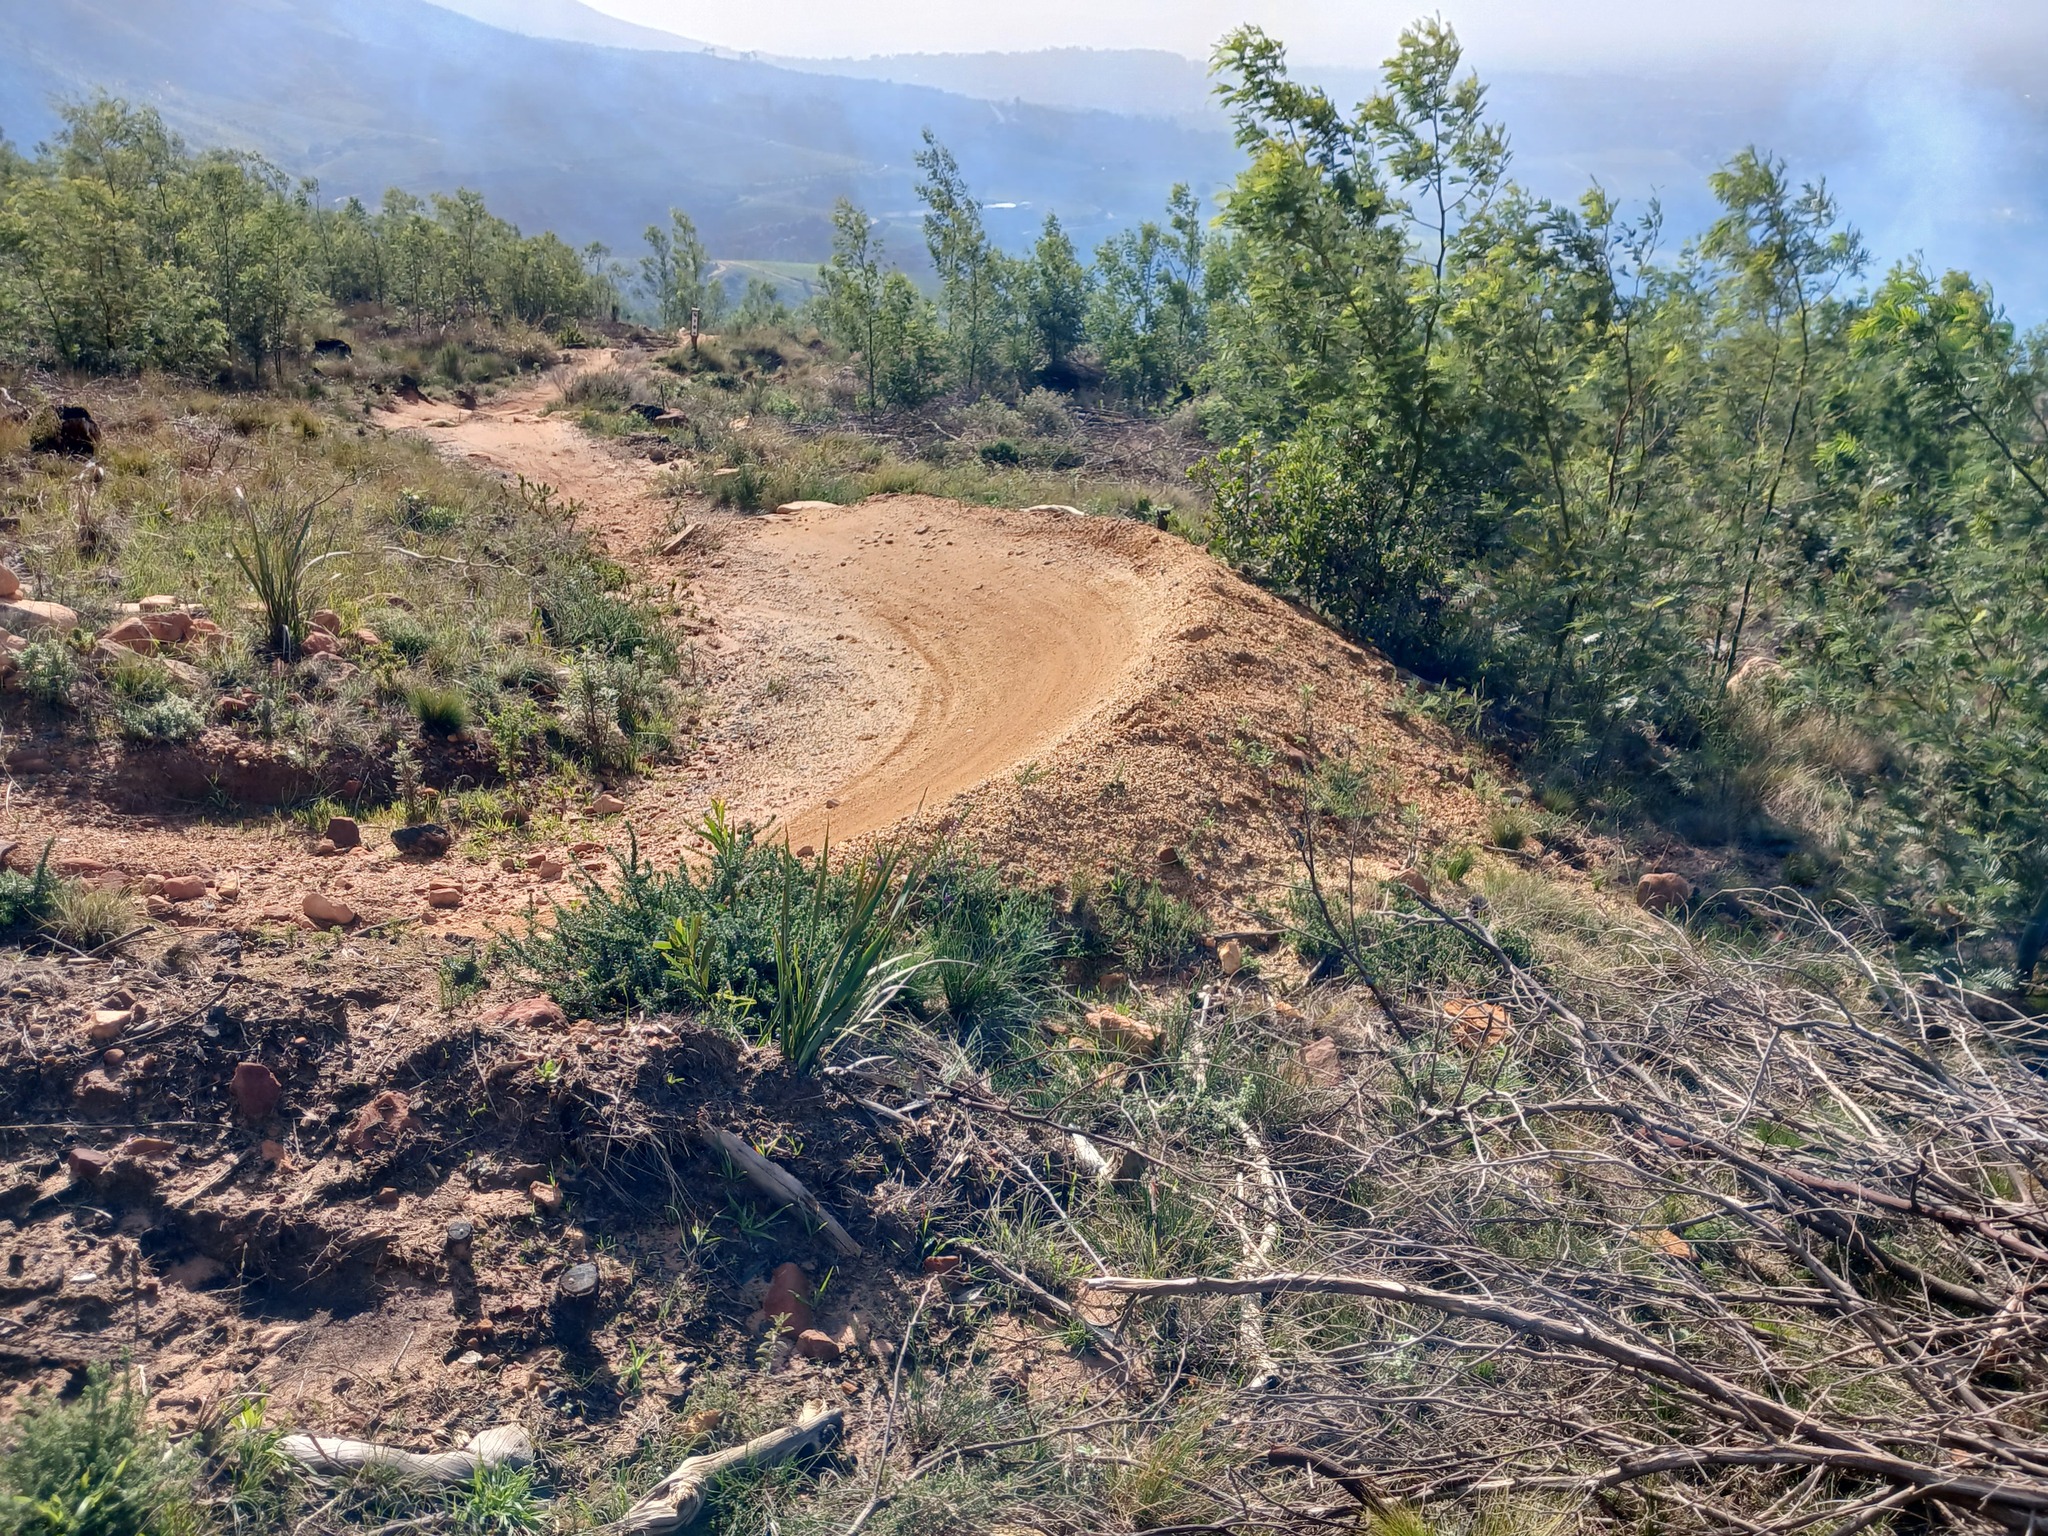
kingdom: Plantae
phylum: Tracheophyta
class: Magnoliopsida
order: Fabales
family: Fabaceae
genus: Acacia
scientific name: Acacia mearnsii
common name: Black wattle
